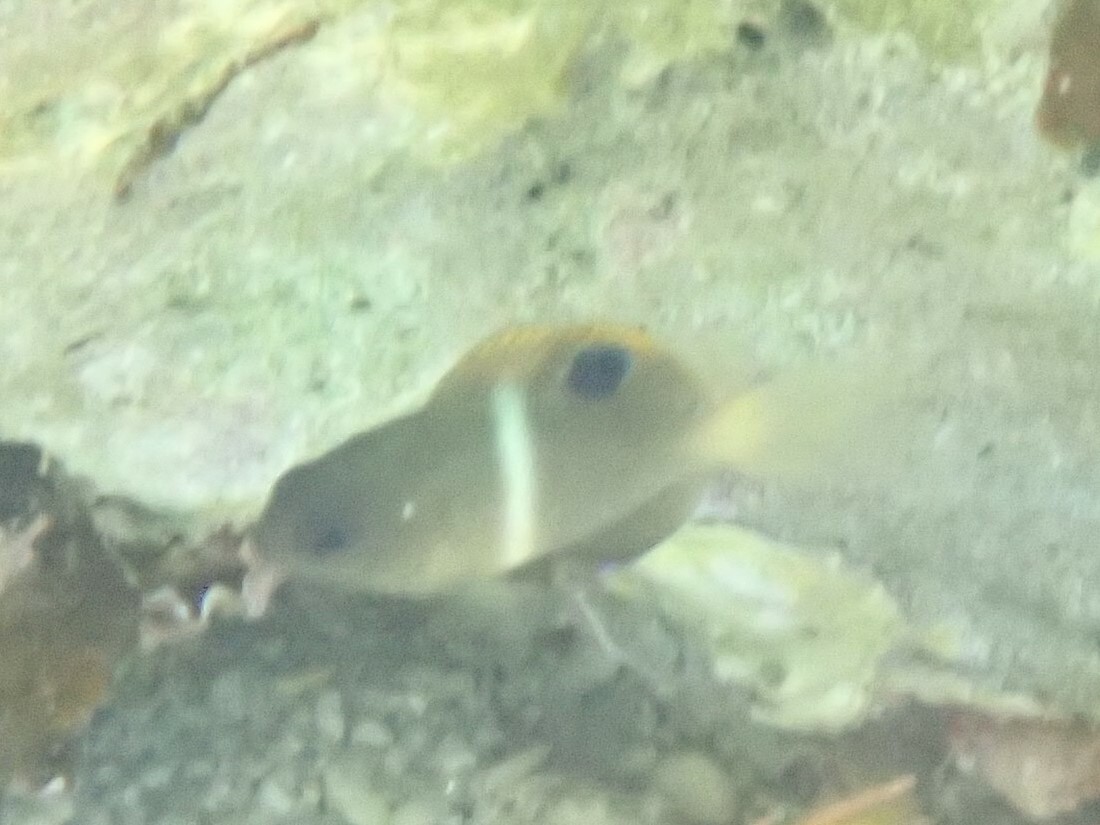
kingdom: Animalia
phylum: Chordata
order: Perciformes
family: Pomacentridae
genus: Chrysiptera
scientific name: Chrysiptera biocellata
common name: Twinspot damselfish
